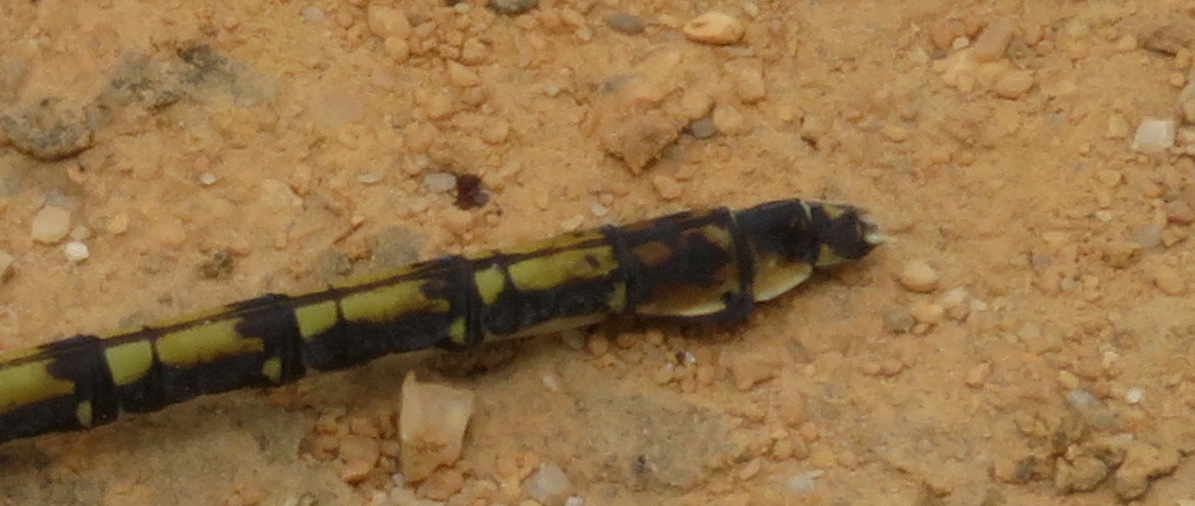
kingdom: Animalia
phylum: Arthropoda
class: Insecta
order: Odonata
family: Gomphidae
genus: Ceratogomphus
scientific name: Ceratogomphus triceraticus
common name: Cape thorntail
